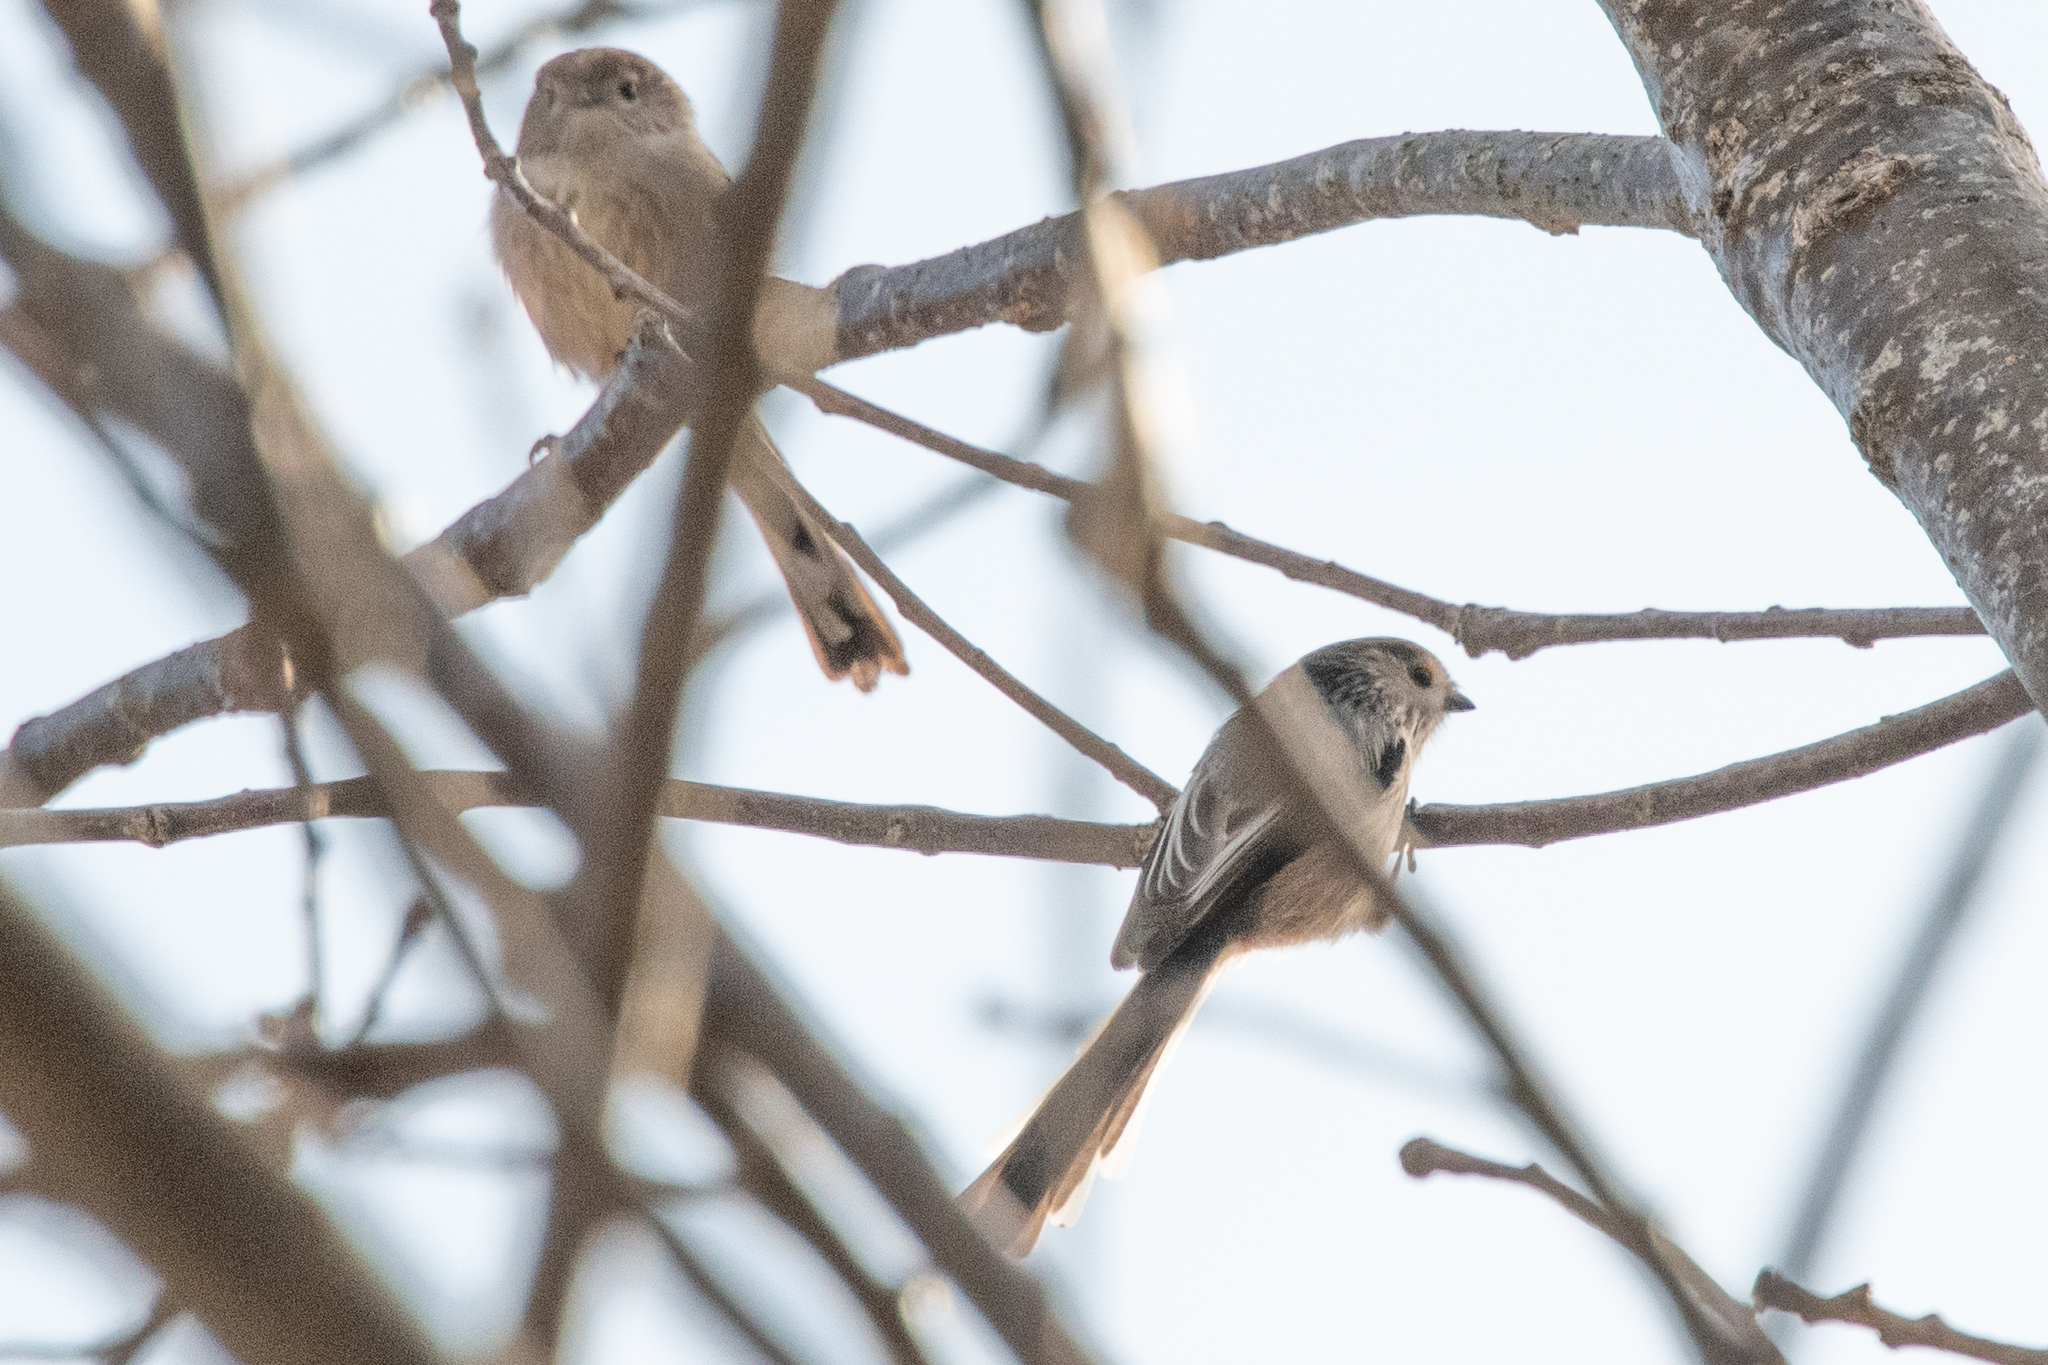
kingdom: Animalia
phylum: Chordata
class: Aves
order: Passeriformes
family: Aegithalidae
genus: Aegithalos
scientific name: Aegithalos caudatus
